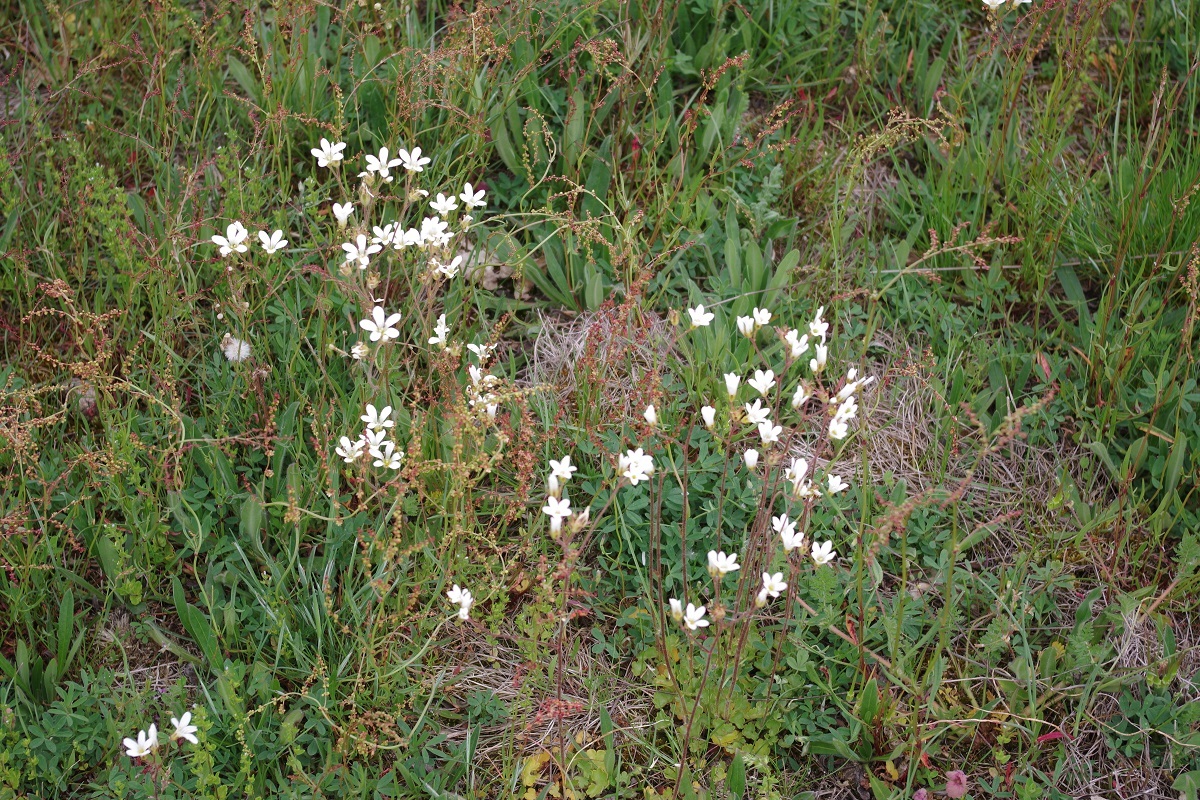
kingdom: Plantae
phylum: Tracheophyta
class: Magnoliopsida
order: Saxifragales
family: Saxifragaceae
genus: Saxifraga
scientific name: Saxifraga granulata
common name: Meadow saxifrage
